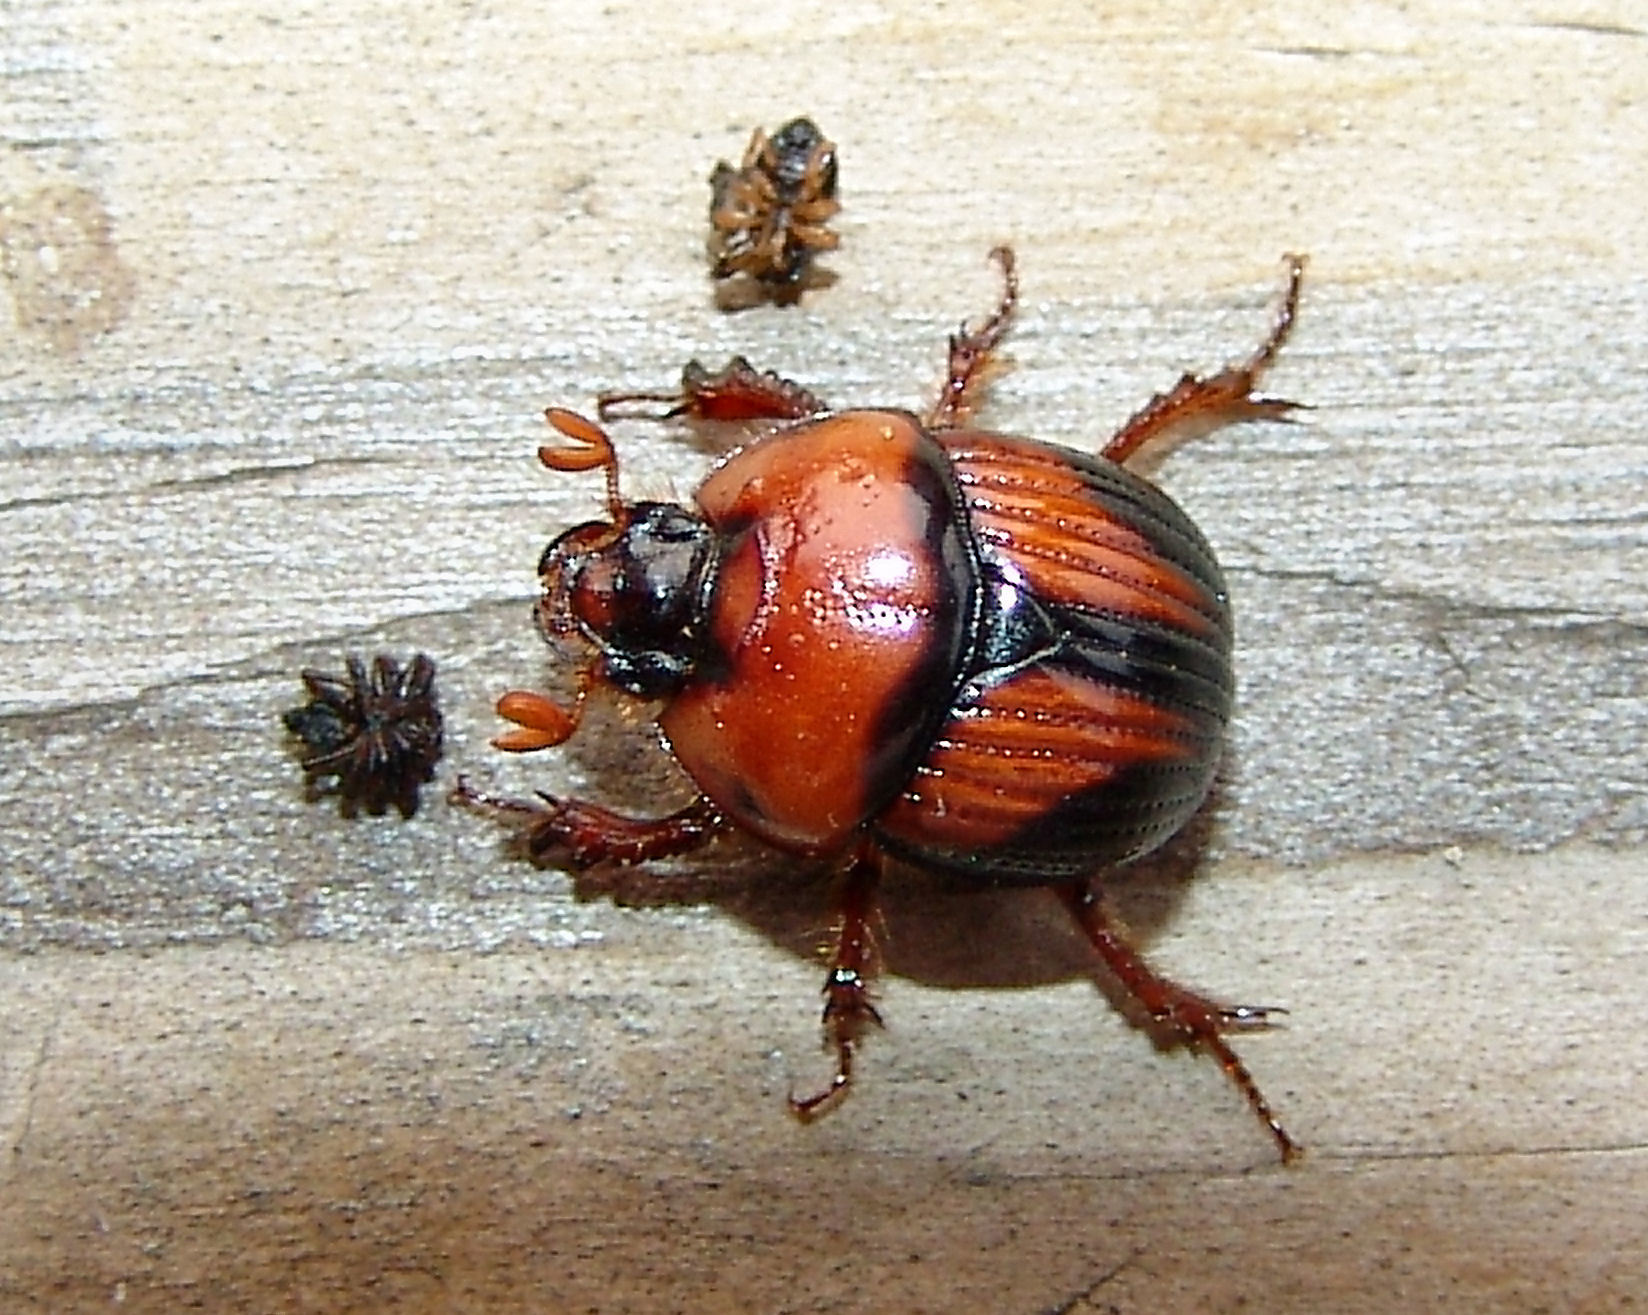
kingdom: Animalia
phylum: Arthropoda
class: Insecta
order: Coleoptera
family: Geotrupidae
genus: Bolbocerosoma
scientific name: Bolbocerosoma lepidissimum
